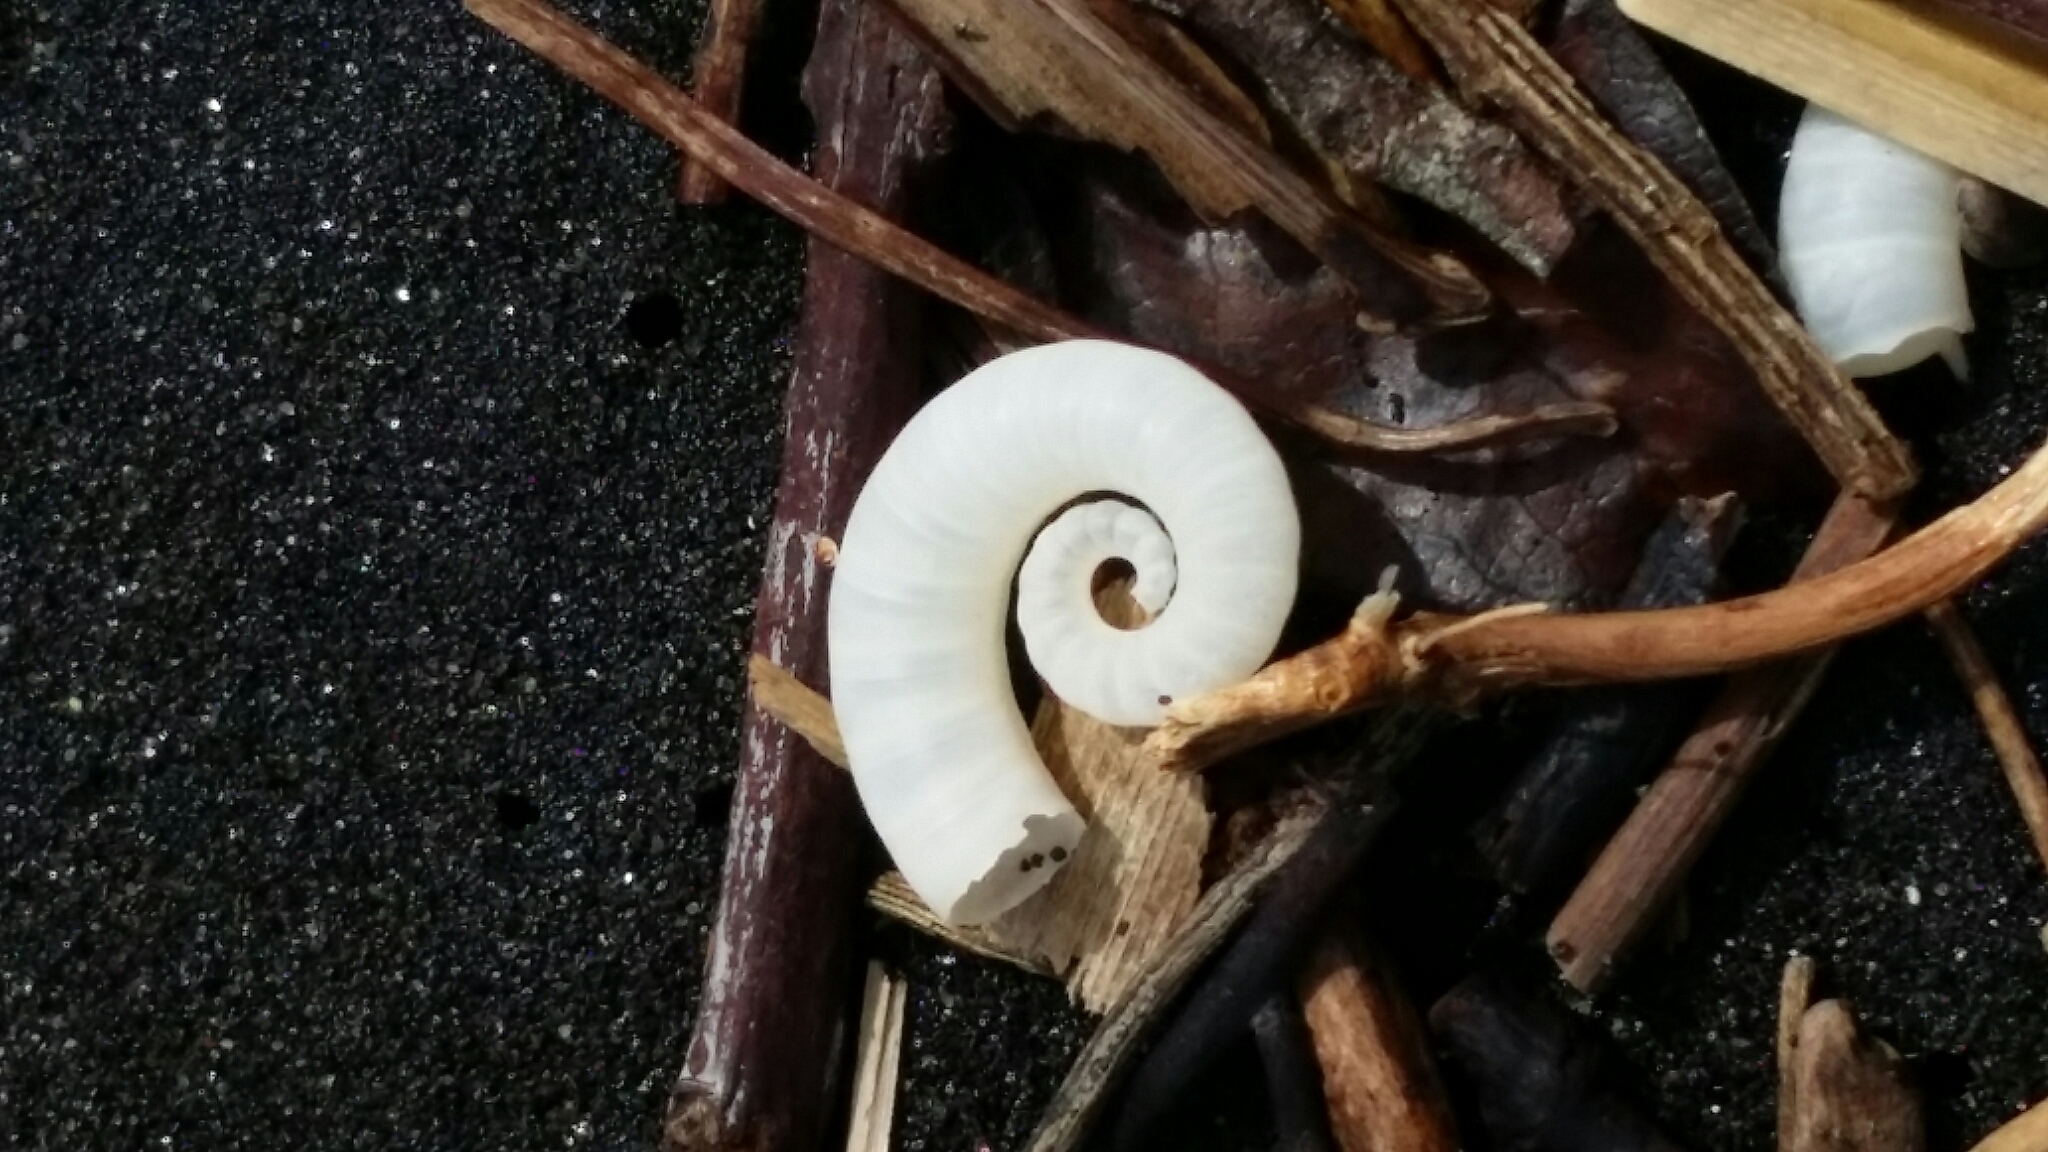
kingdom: Animalia
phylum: Mollusca
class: Cephalopoda
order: Spirulida
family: Spirulidae
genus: Spirula
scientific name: Spirula spirula
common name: Ram's horn squid
